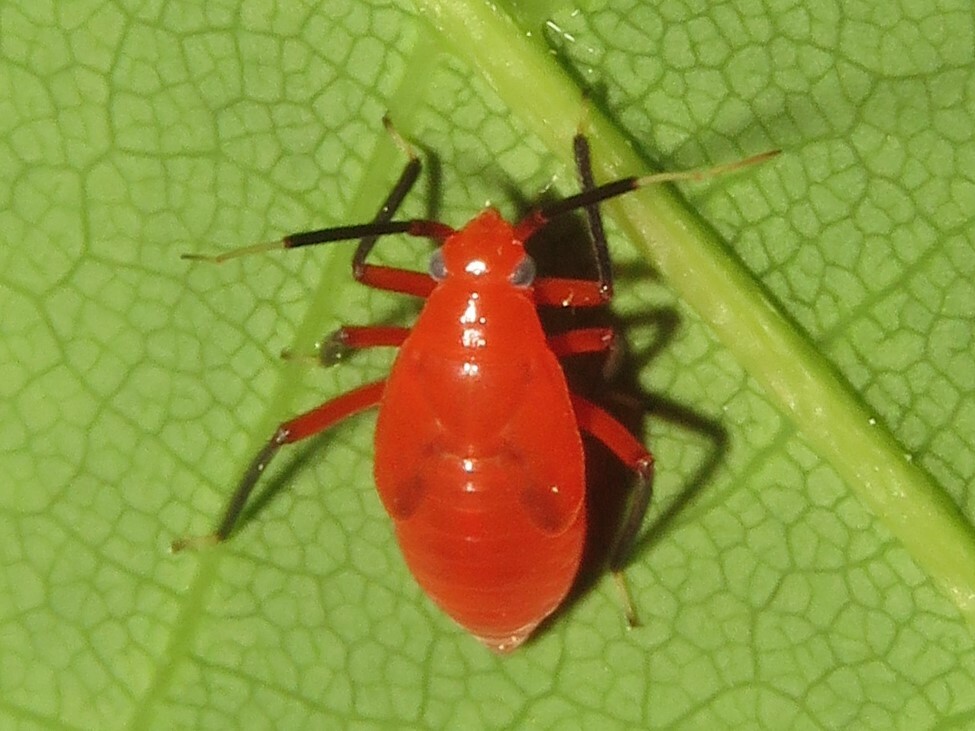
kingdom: Animalia
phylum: Arthropoda
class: Insecta
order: Hemiptera
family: Miridae
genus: Coccobaphes
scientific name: Coccobaphes frontifer
